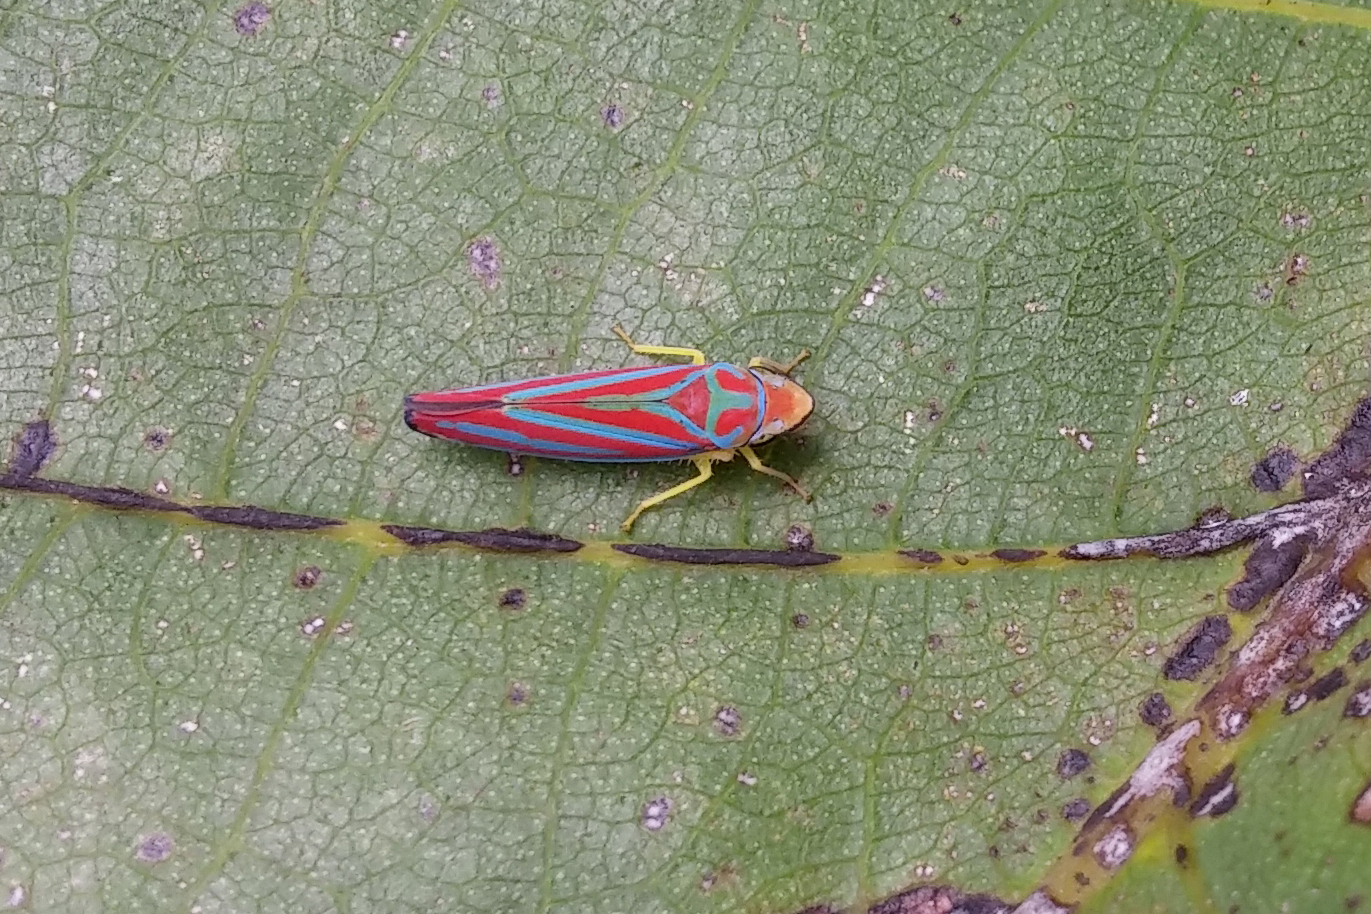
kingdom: Animalia
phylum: Arthropoda
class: Insecta
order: Hemiptera
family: Cicadellidae
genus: Graphocephala
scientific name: Graphocephala
